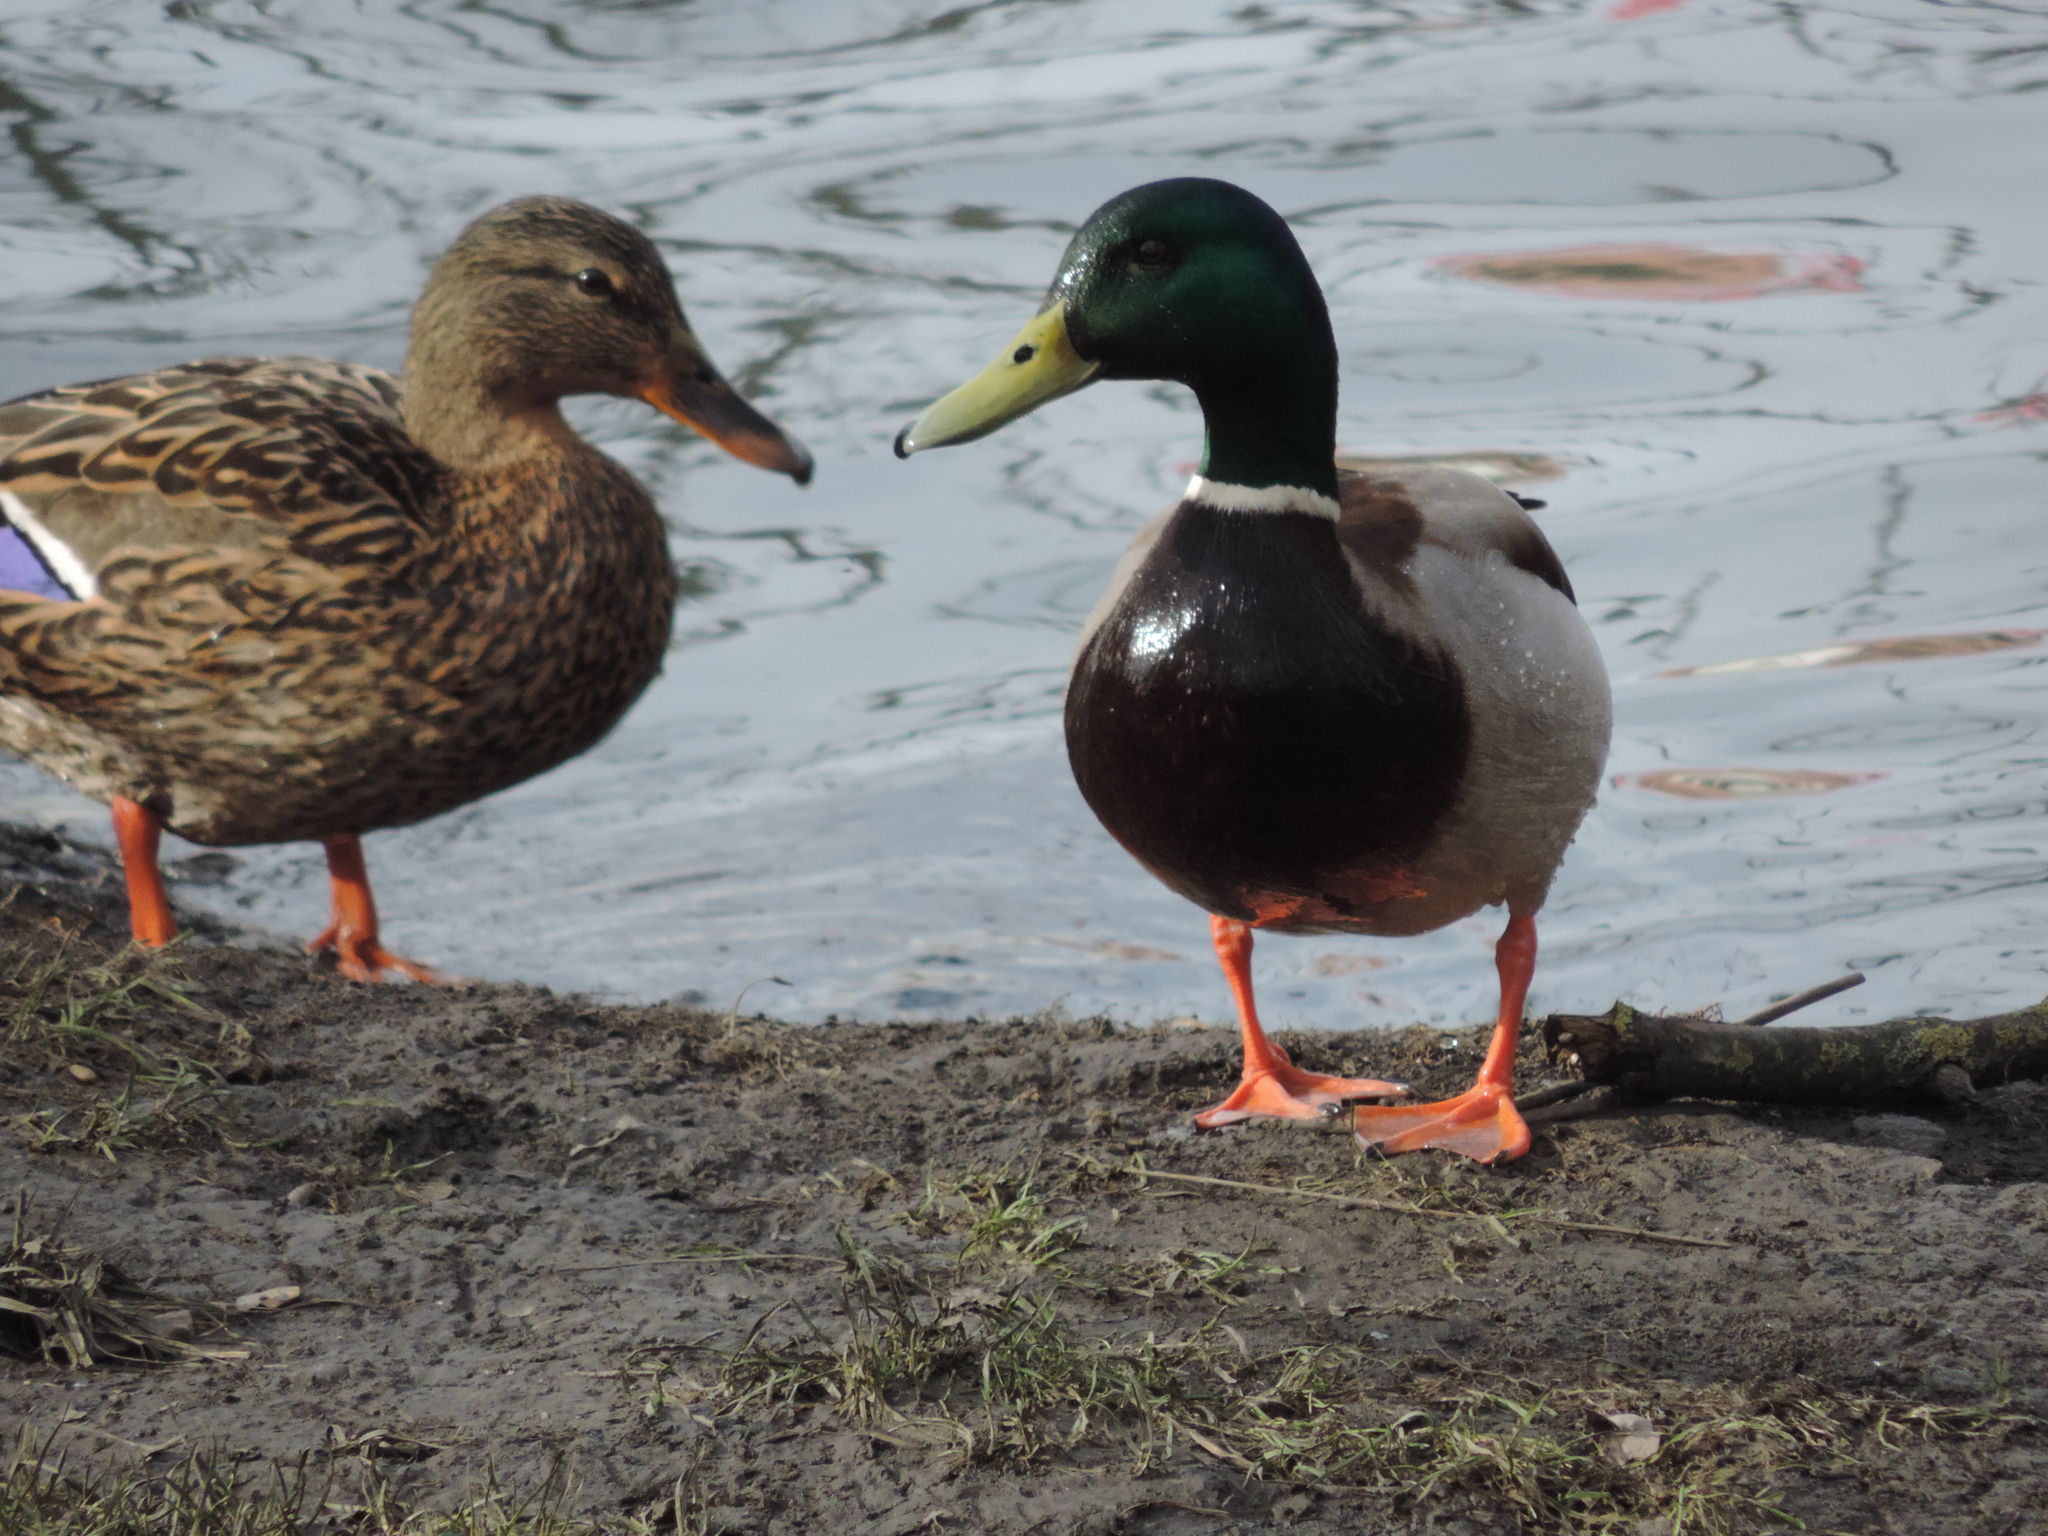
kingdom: Animalia
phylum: Chordata
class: Aves
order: Anseriformes
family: Anatidae
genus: Anas
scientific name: Anas platyrhynchos
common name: Mallard
